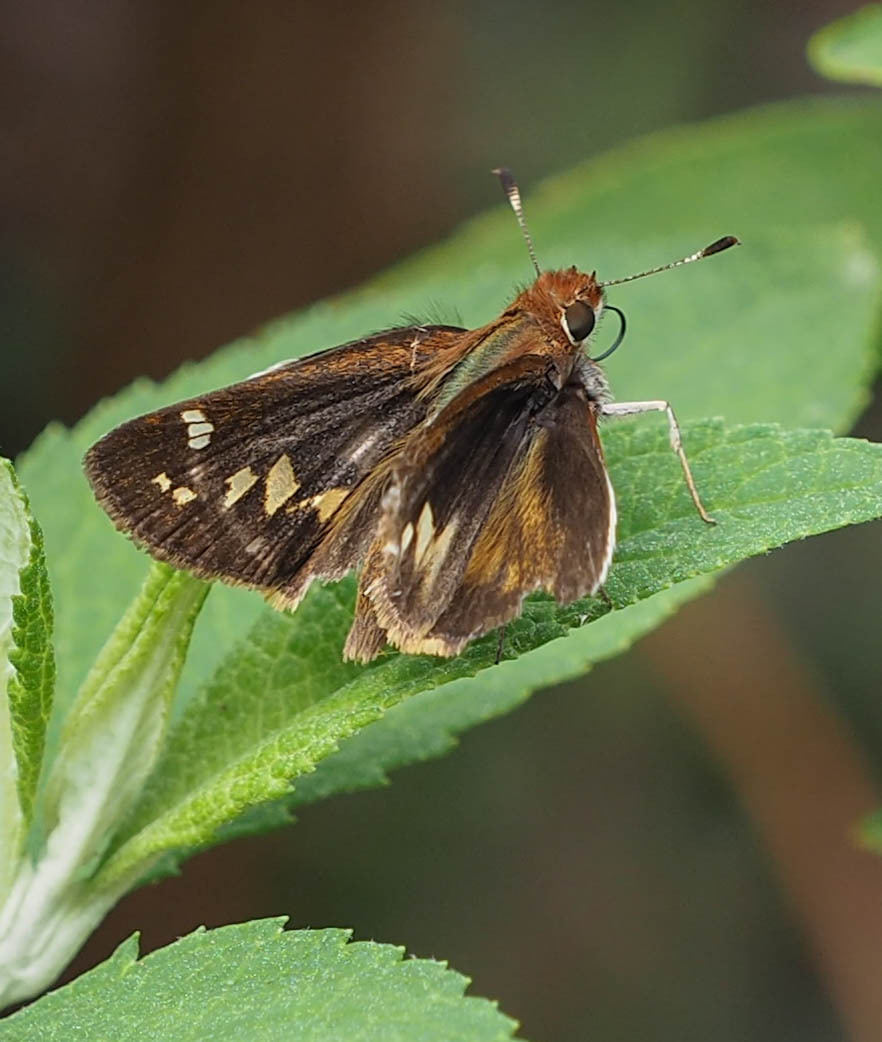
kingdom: Animalia
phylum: Arthropoda
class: Insecta
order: Lepidoptera
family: Hesperiidae
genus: Lon
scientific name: Lon zabulon
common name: Zabulon skipper
